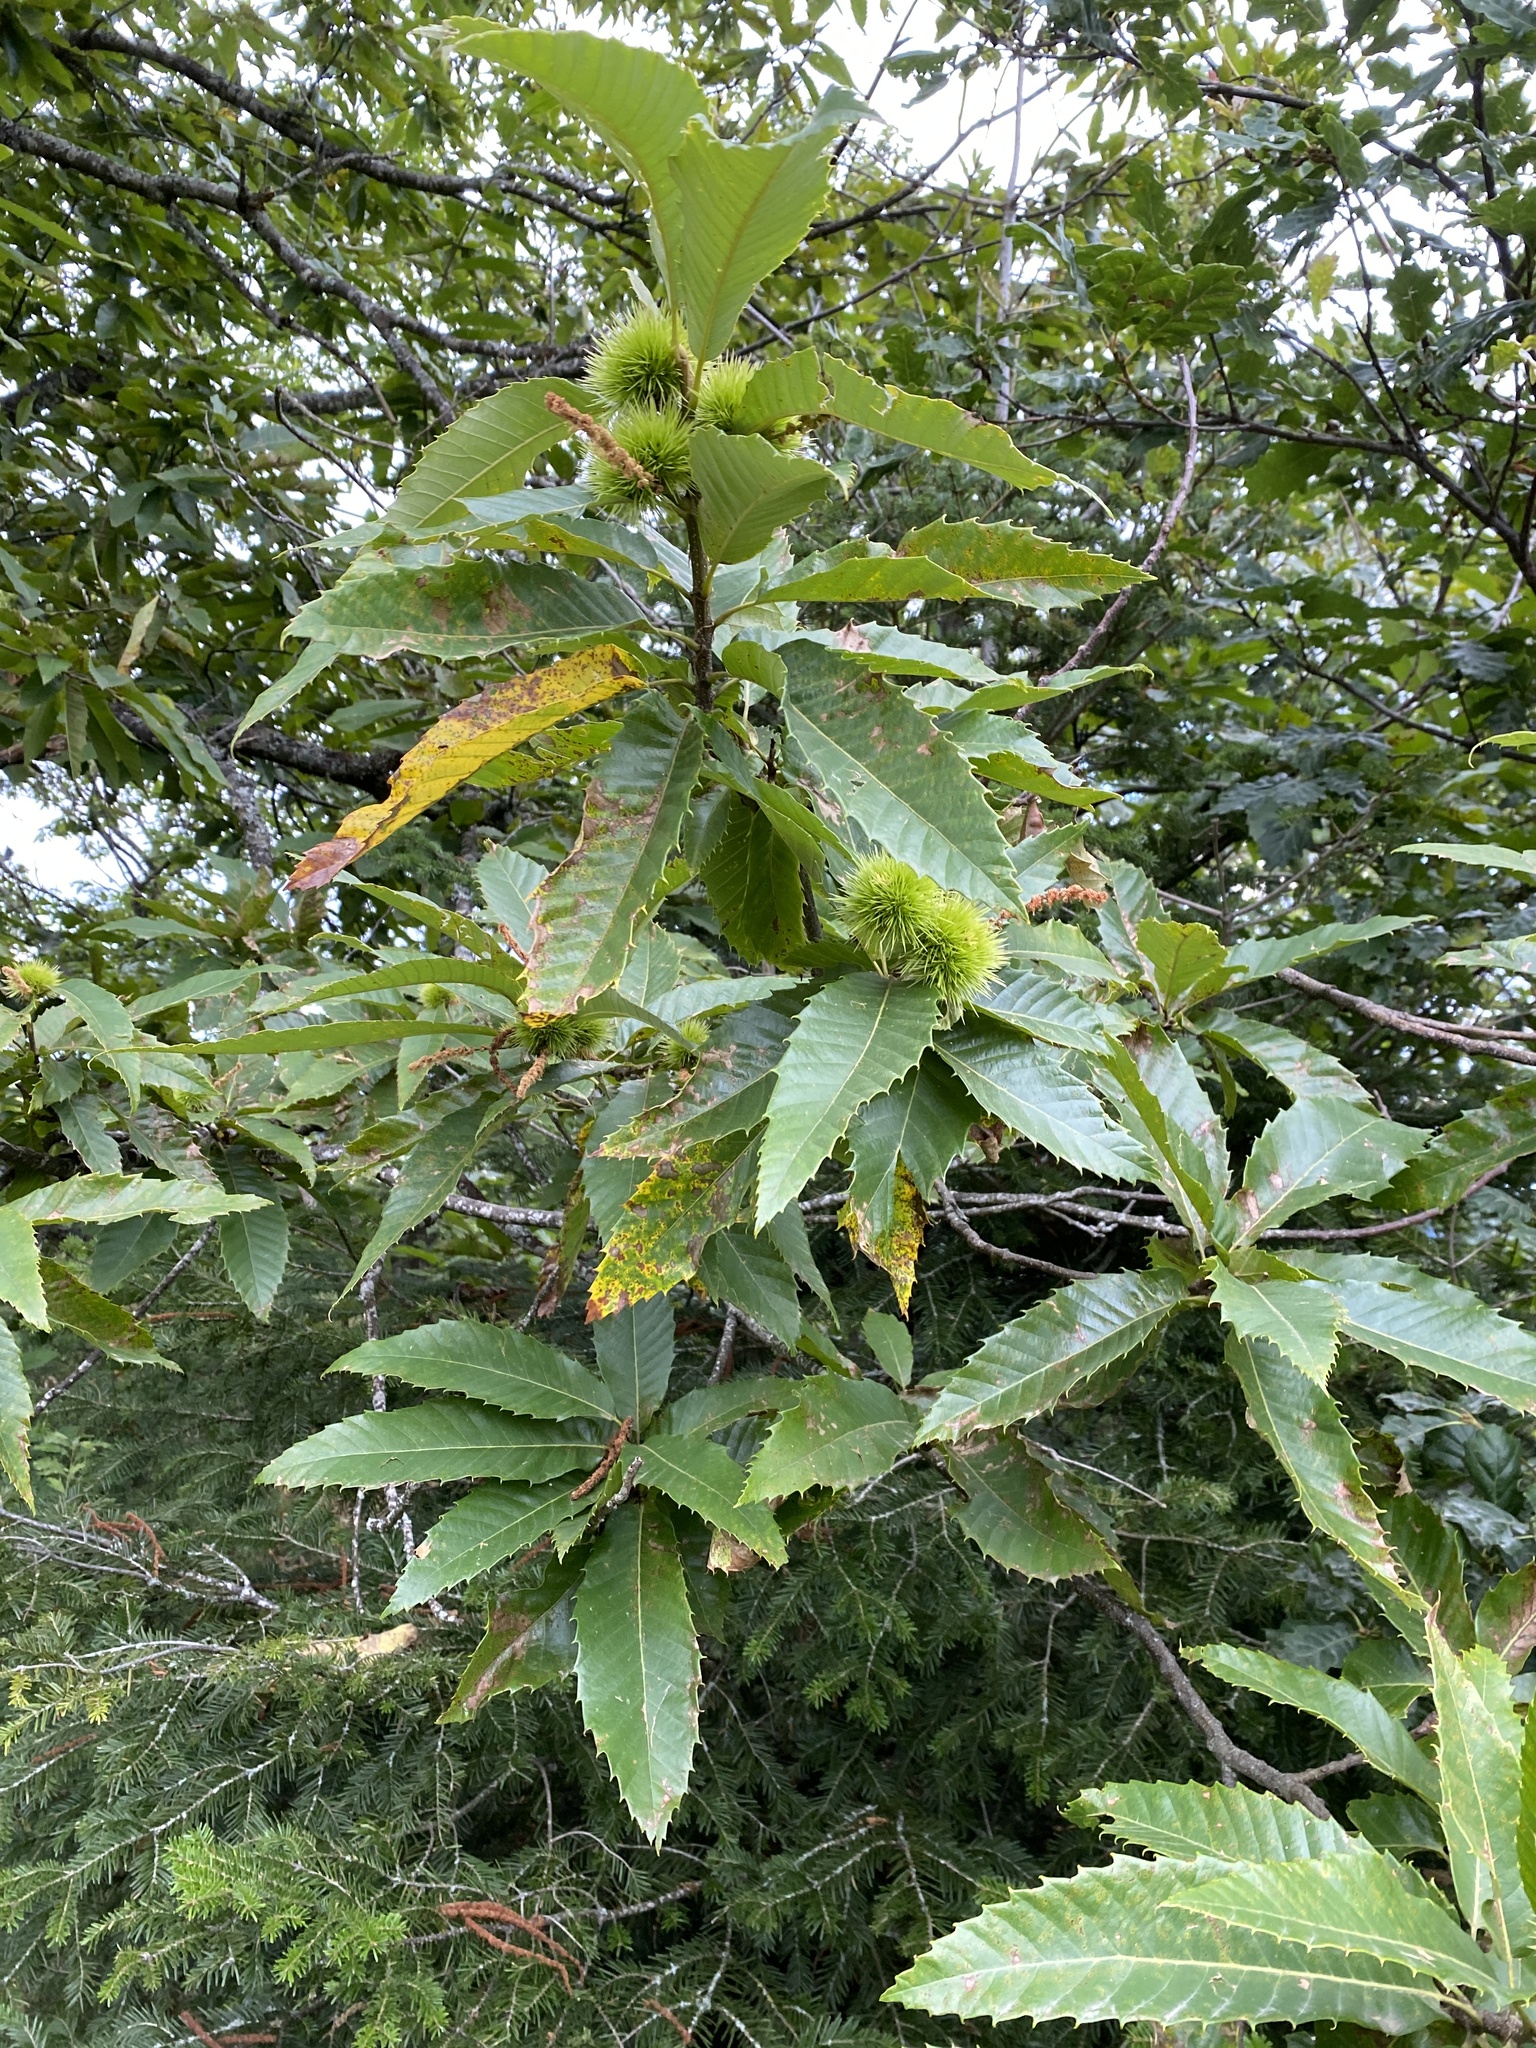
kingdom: Plantae
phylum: Tracheophyta
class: Magnoliopsida
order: Fagales
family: Fagaceae
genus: Castanea
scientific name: Castanea sativa
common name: Sweet chestnut
